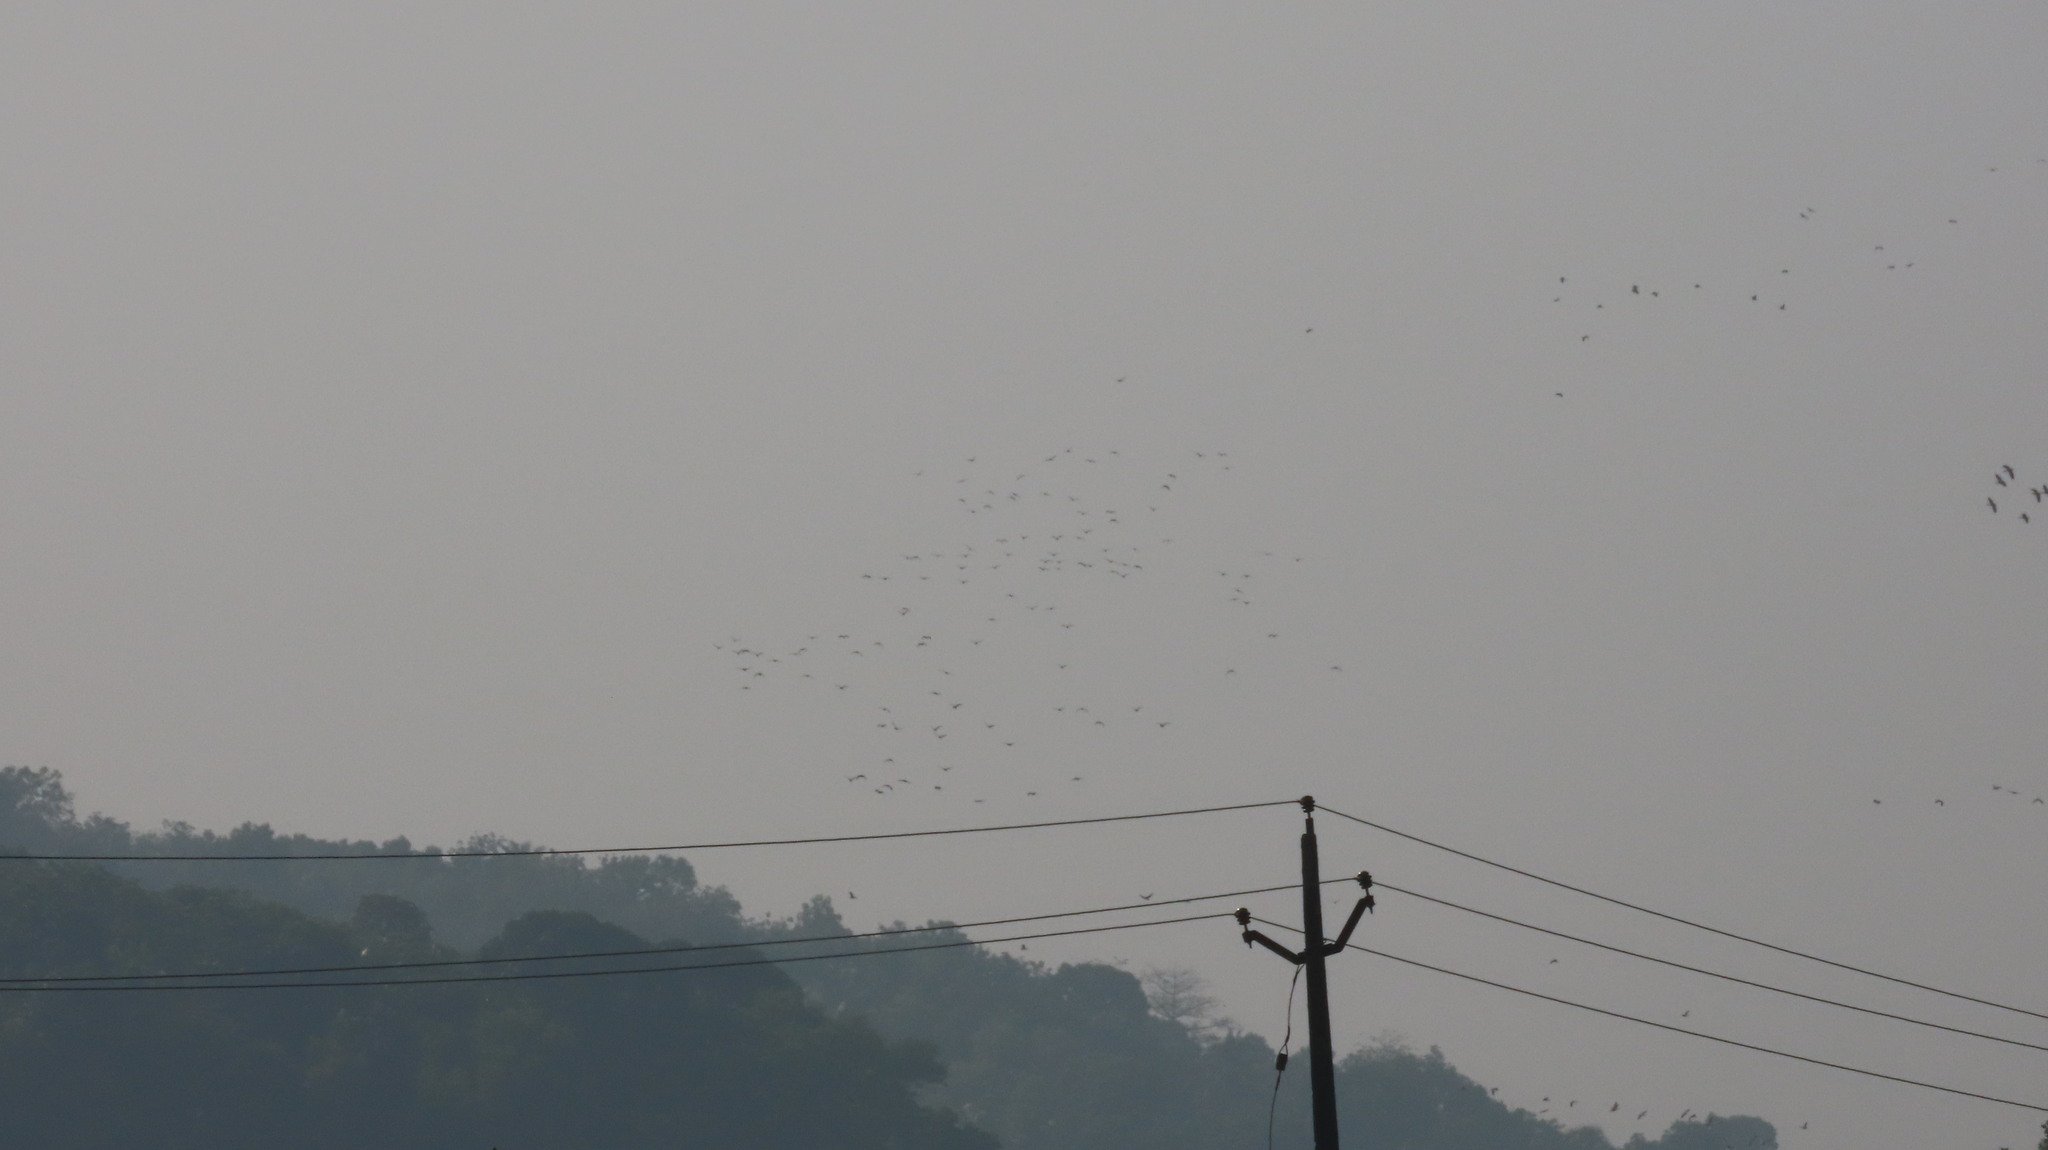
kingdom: Animalia
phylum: Chordata
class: Aves
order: Anseriformes
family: Anatidae
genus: Dendrocygna
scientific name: Dendrocygna javanica
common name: Lesser whistling-duck
